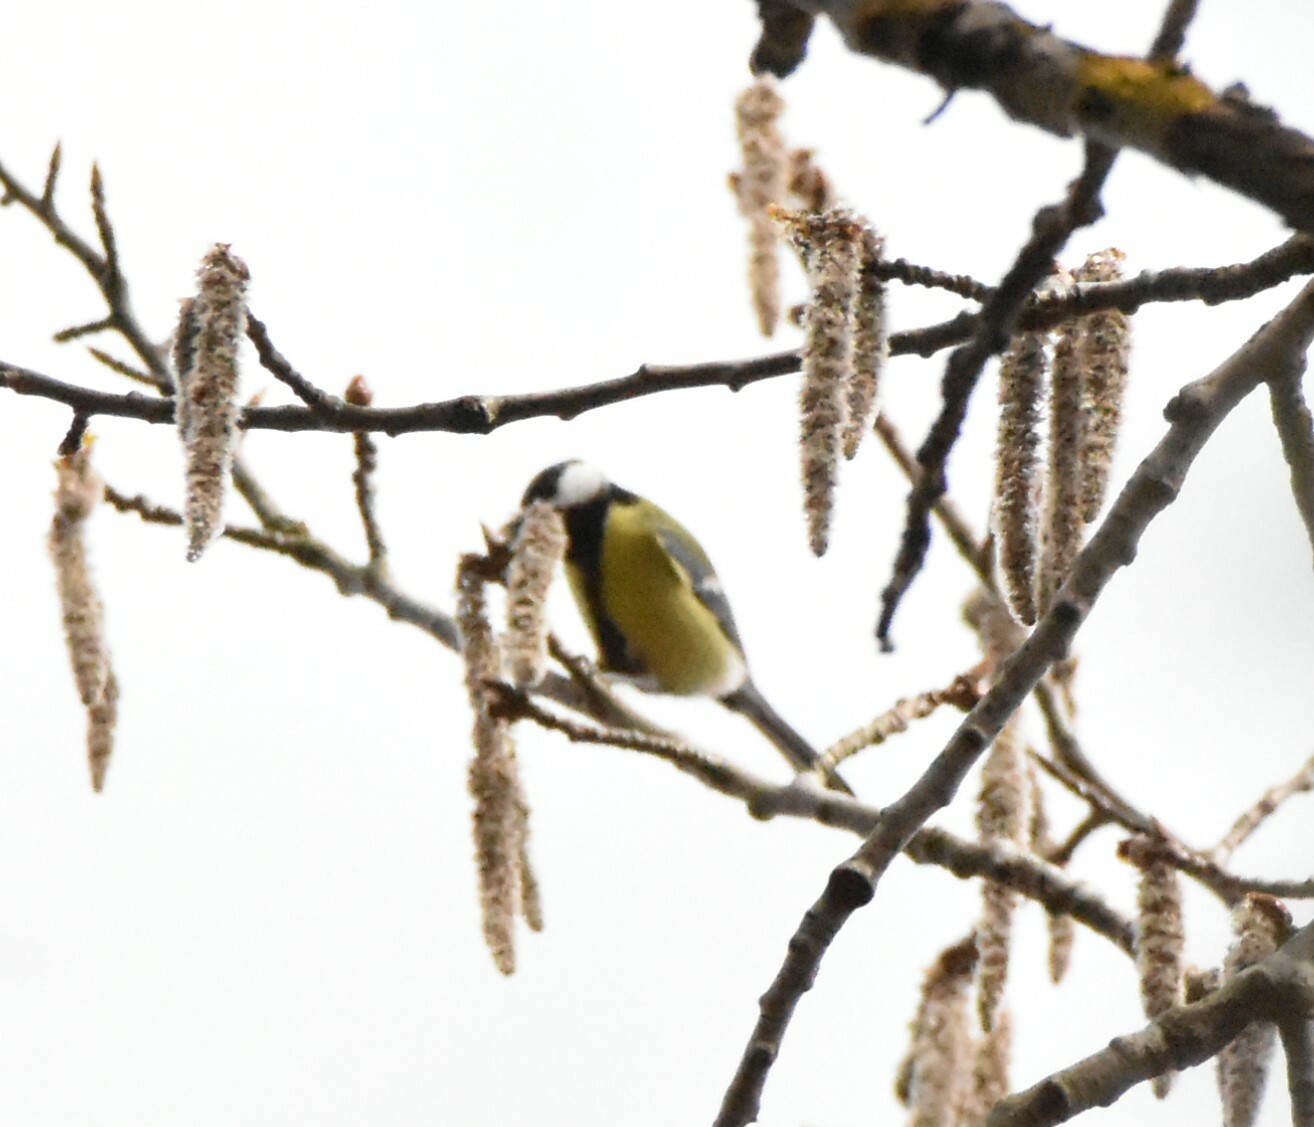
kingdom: Animalia
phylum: Chordata
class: Aves
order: Passeriformes
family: Paridae
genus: Parus
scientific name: Parus major
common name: Great tit
